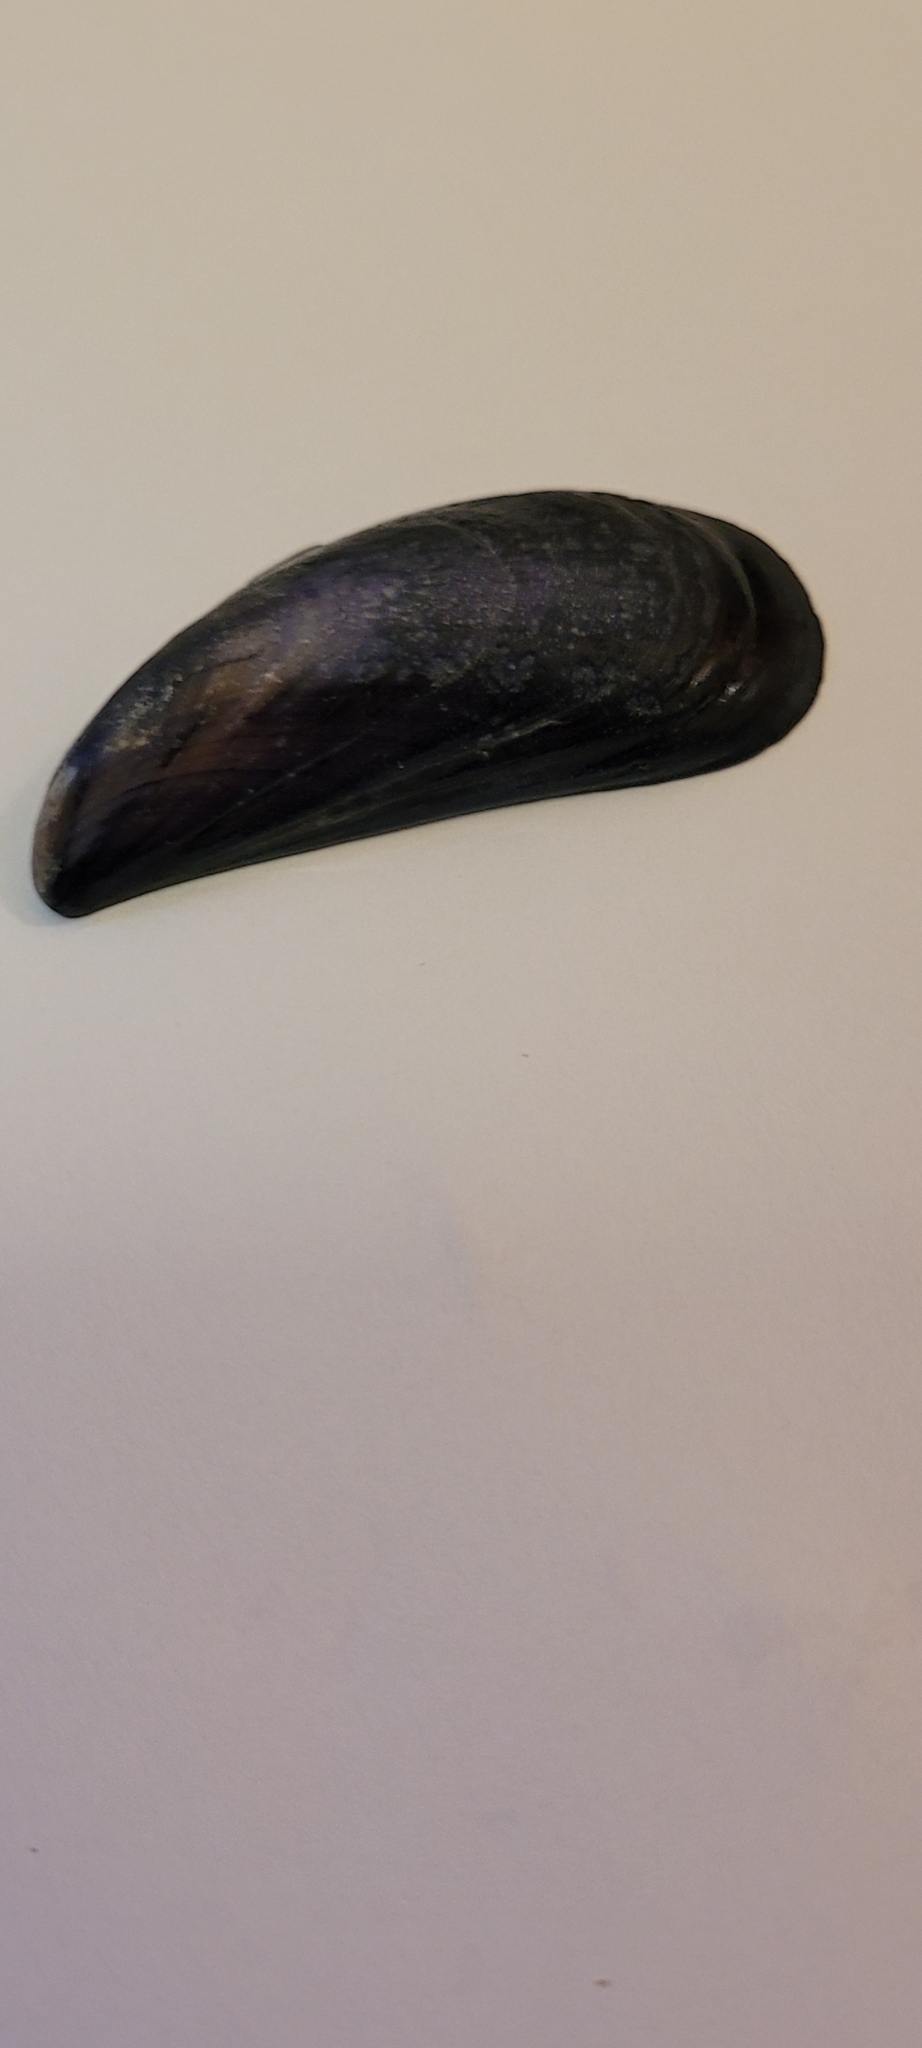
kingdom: Animalia
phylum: Mollusca
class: Bivalvia
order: Mytilida
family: Mytilidae
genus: Mytilus
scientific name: Mytilus edulis
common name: Blue mussel
